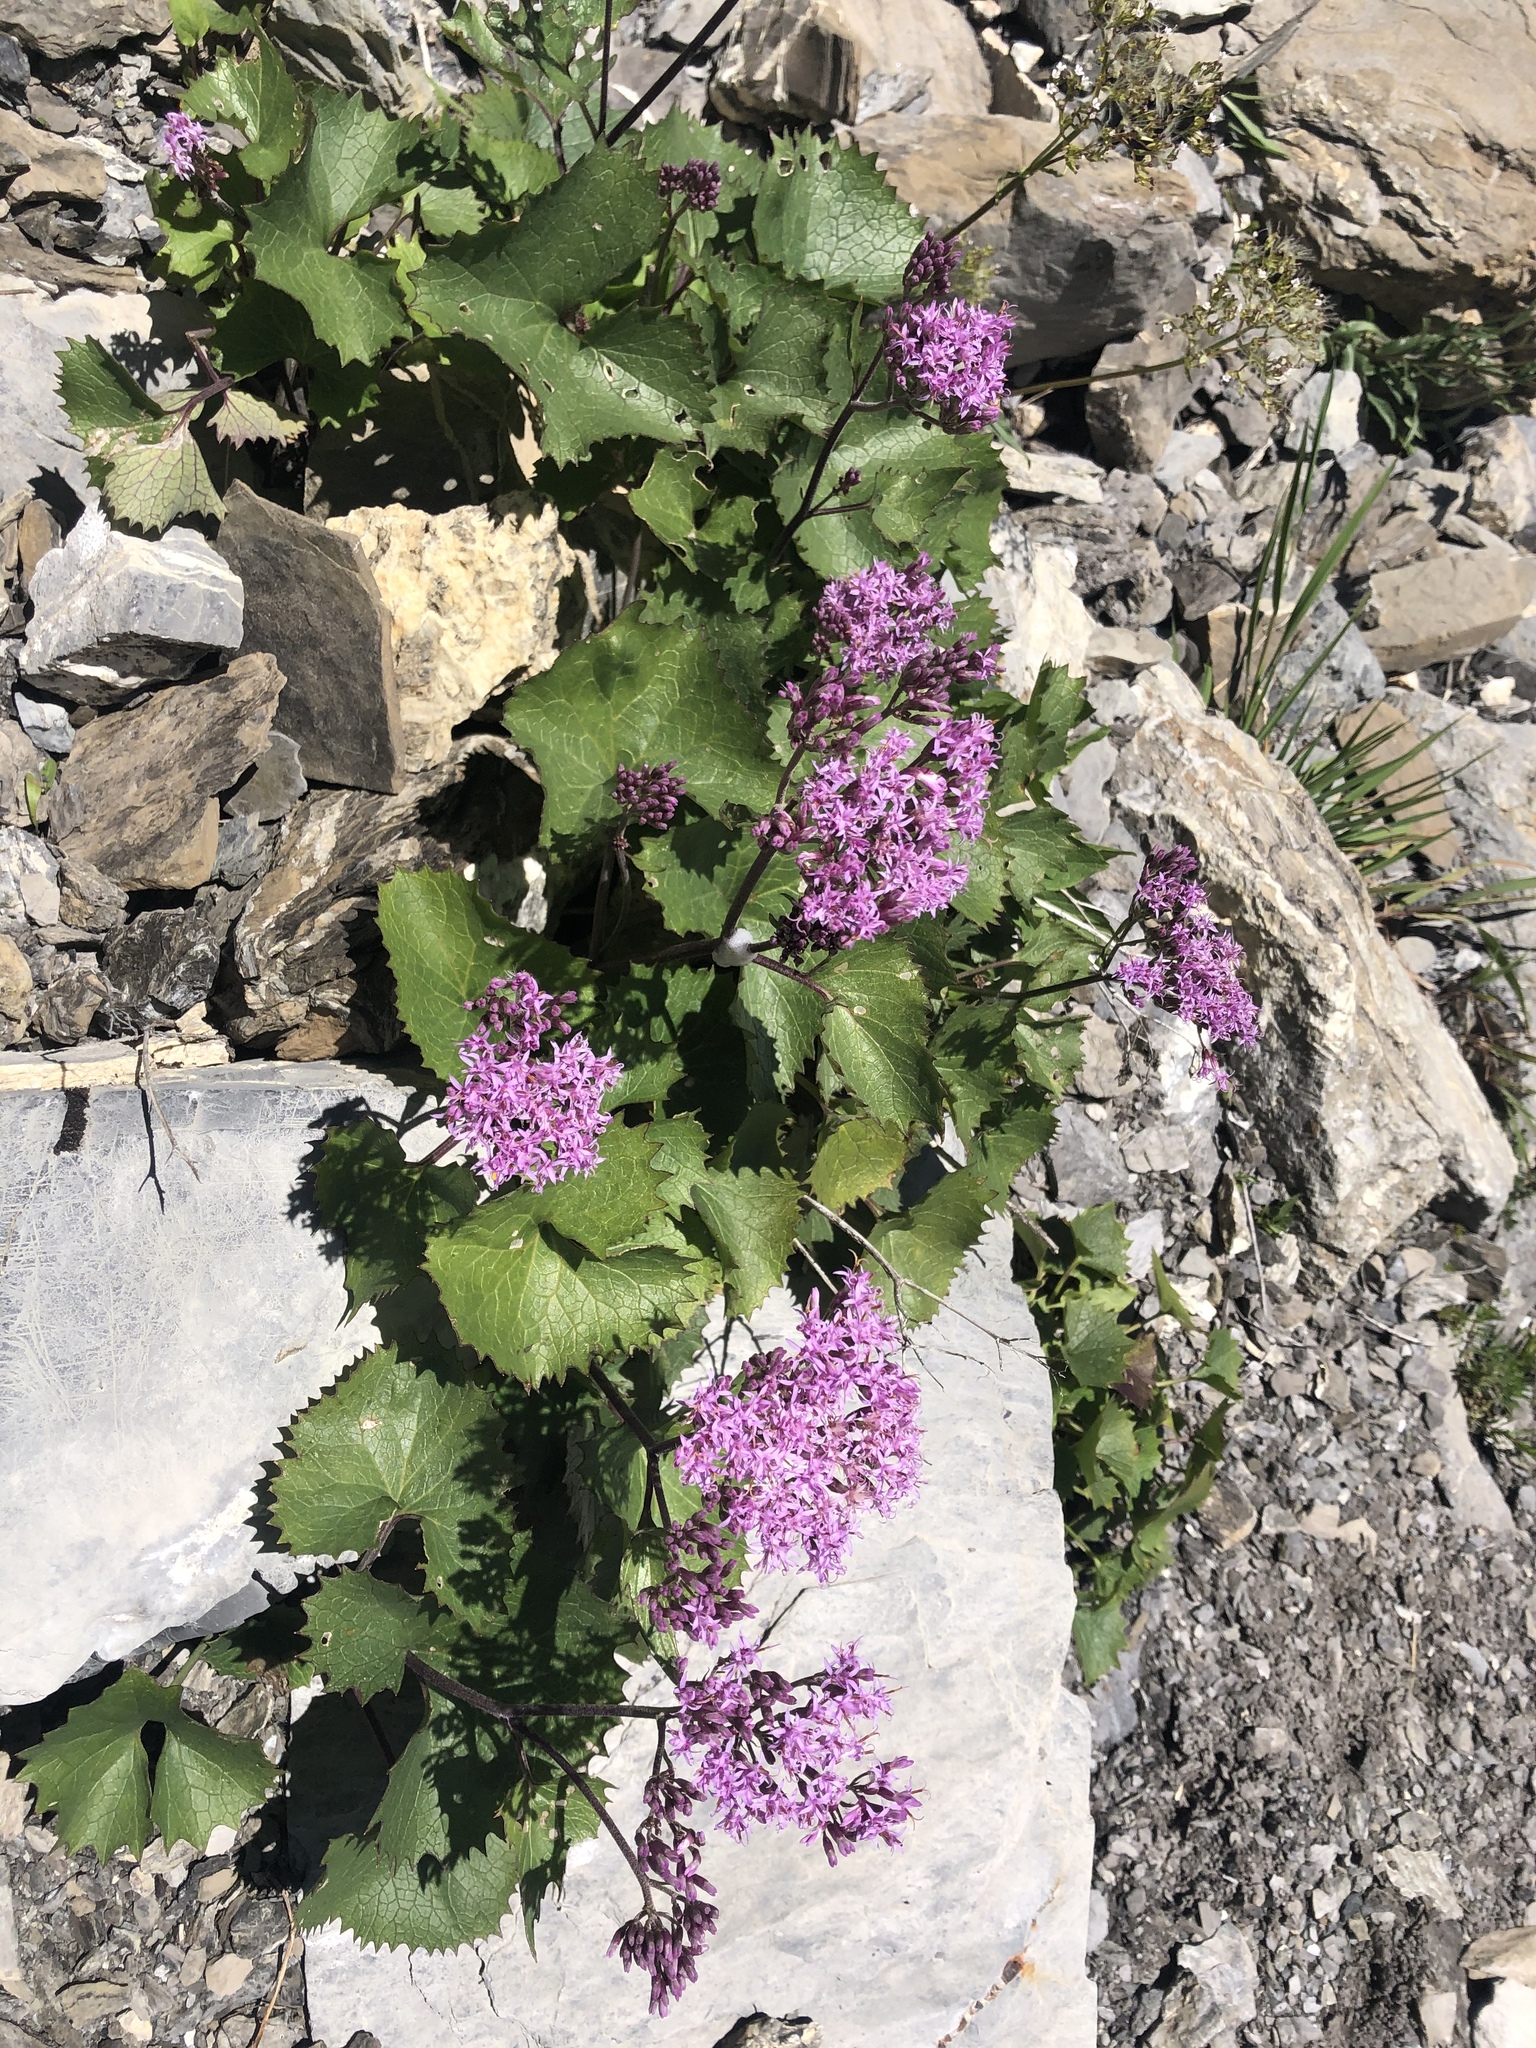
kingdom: Plantae
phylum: Tracheophyta
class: Magnoliopsida
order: Asterales
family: Asteraceae
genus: Adenostyles
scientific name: Adenostyles alliariae
